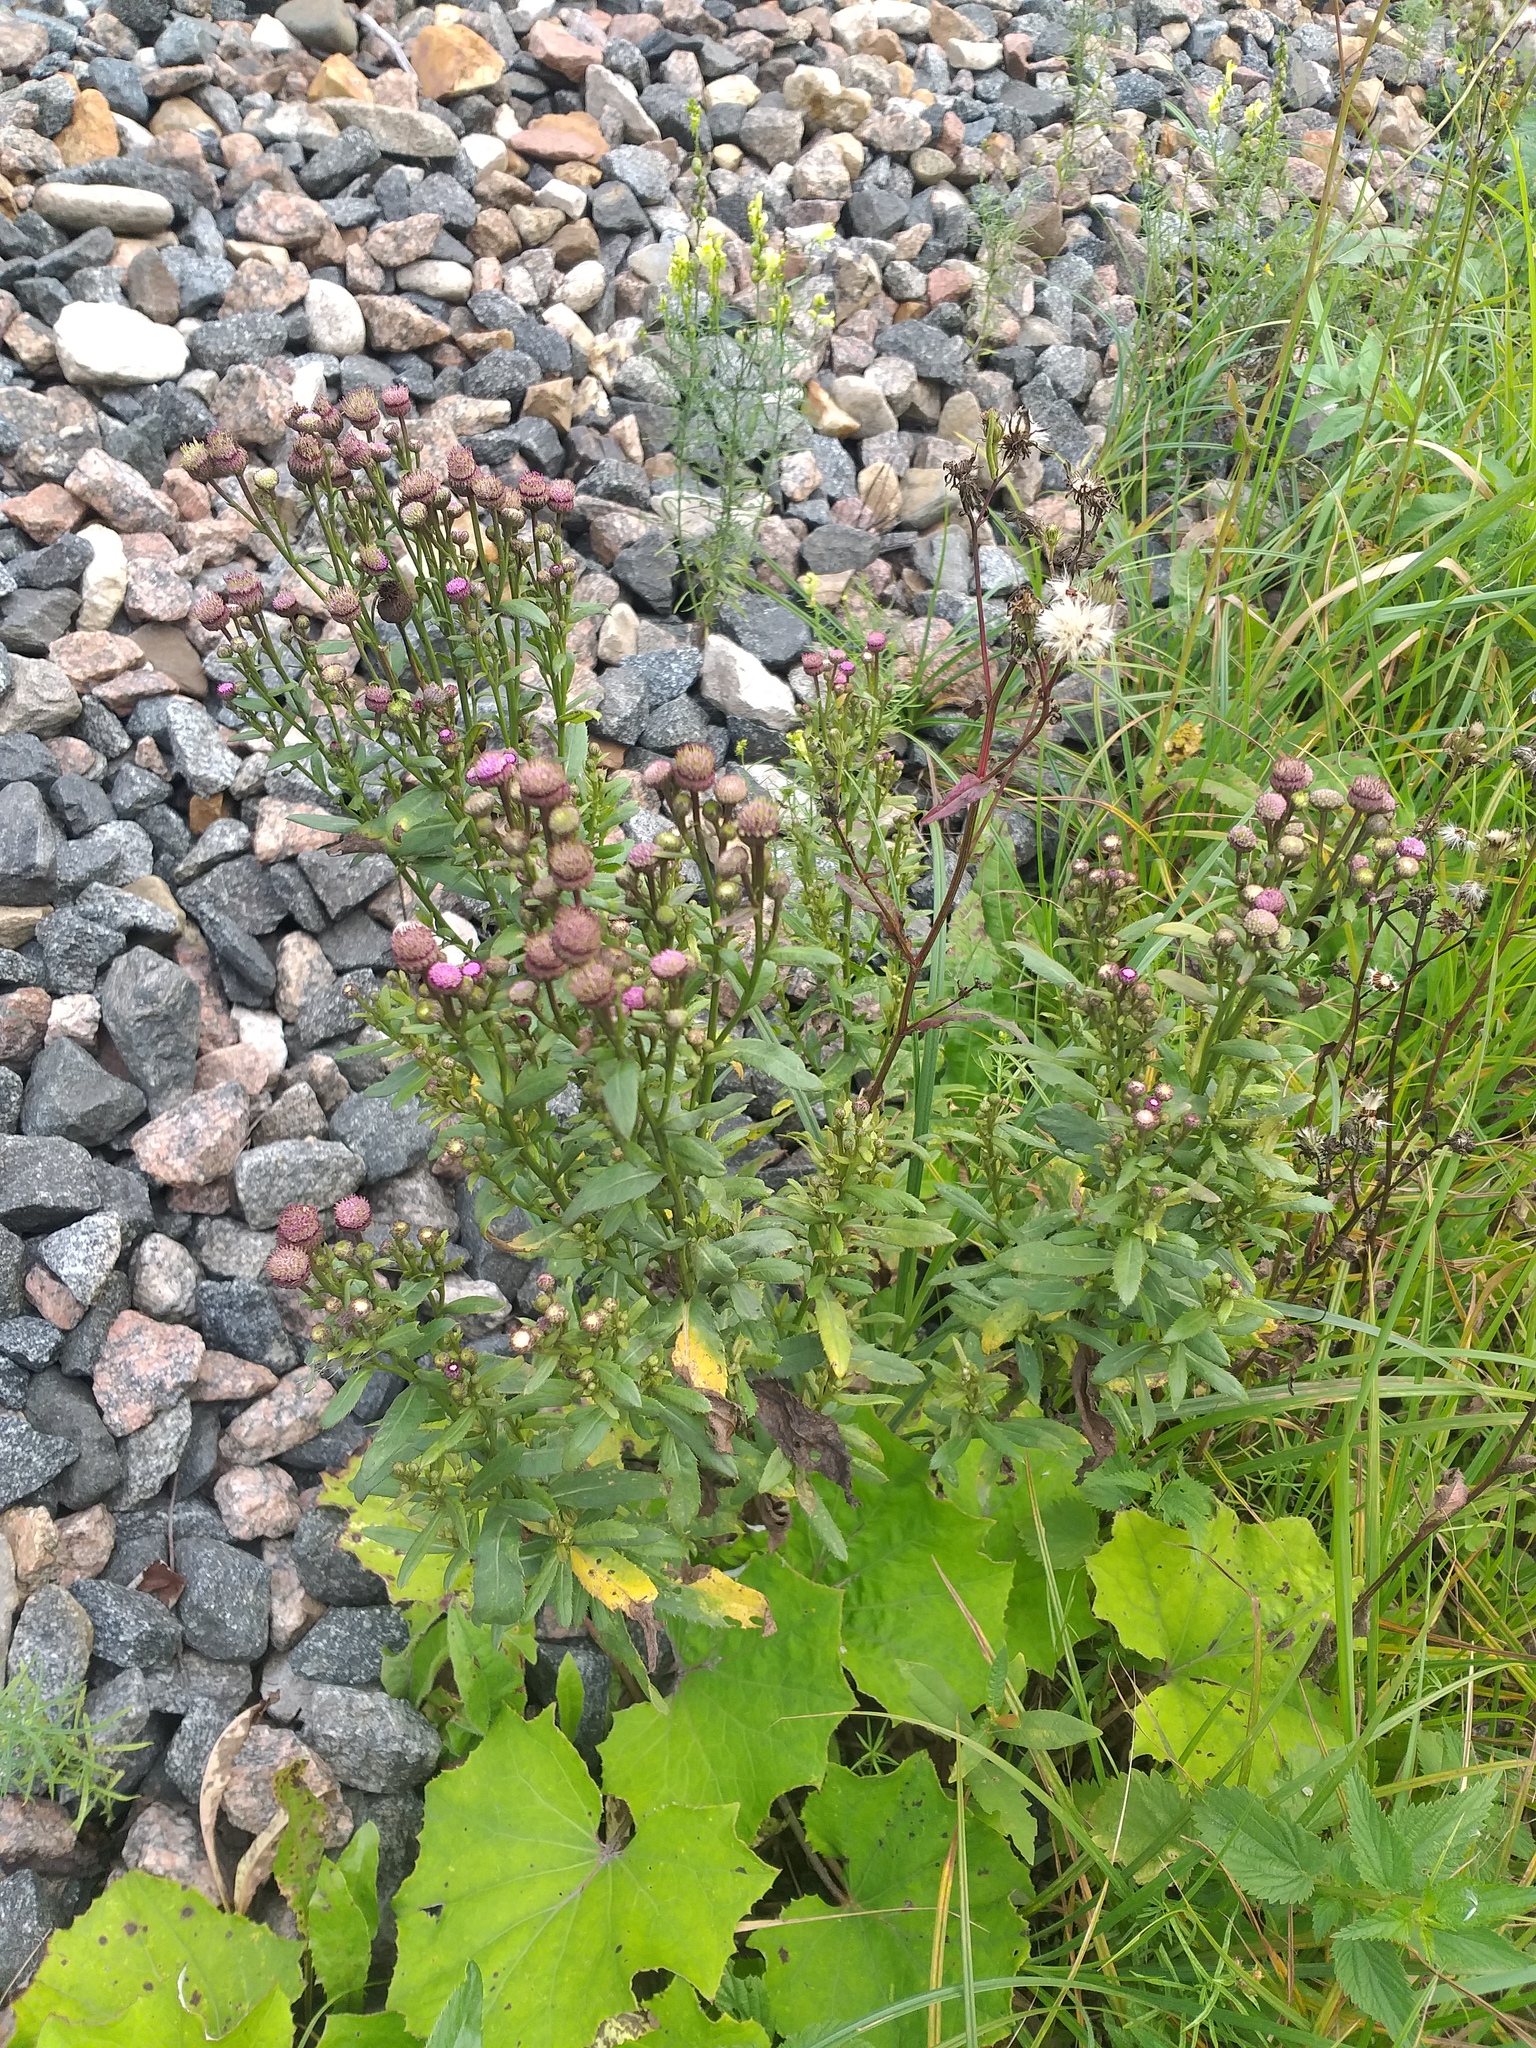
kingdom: Plantae
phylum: Tracheophyta
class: Magnoliopsida
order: Asterales
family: Asteraceae
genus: Cirsium
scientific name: Cirsium arvense
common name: Creeping thistle
